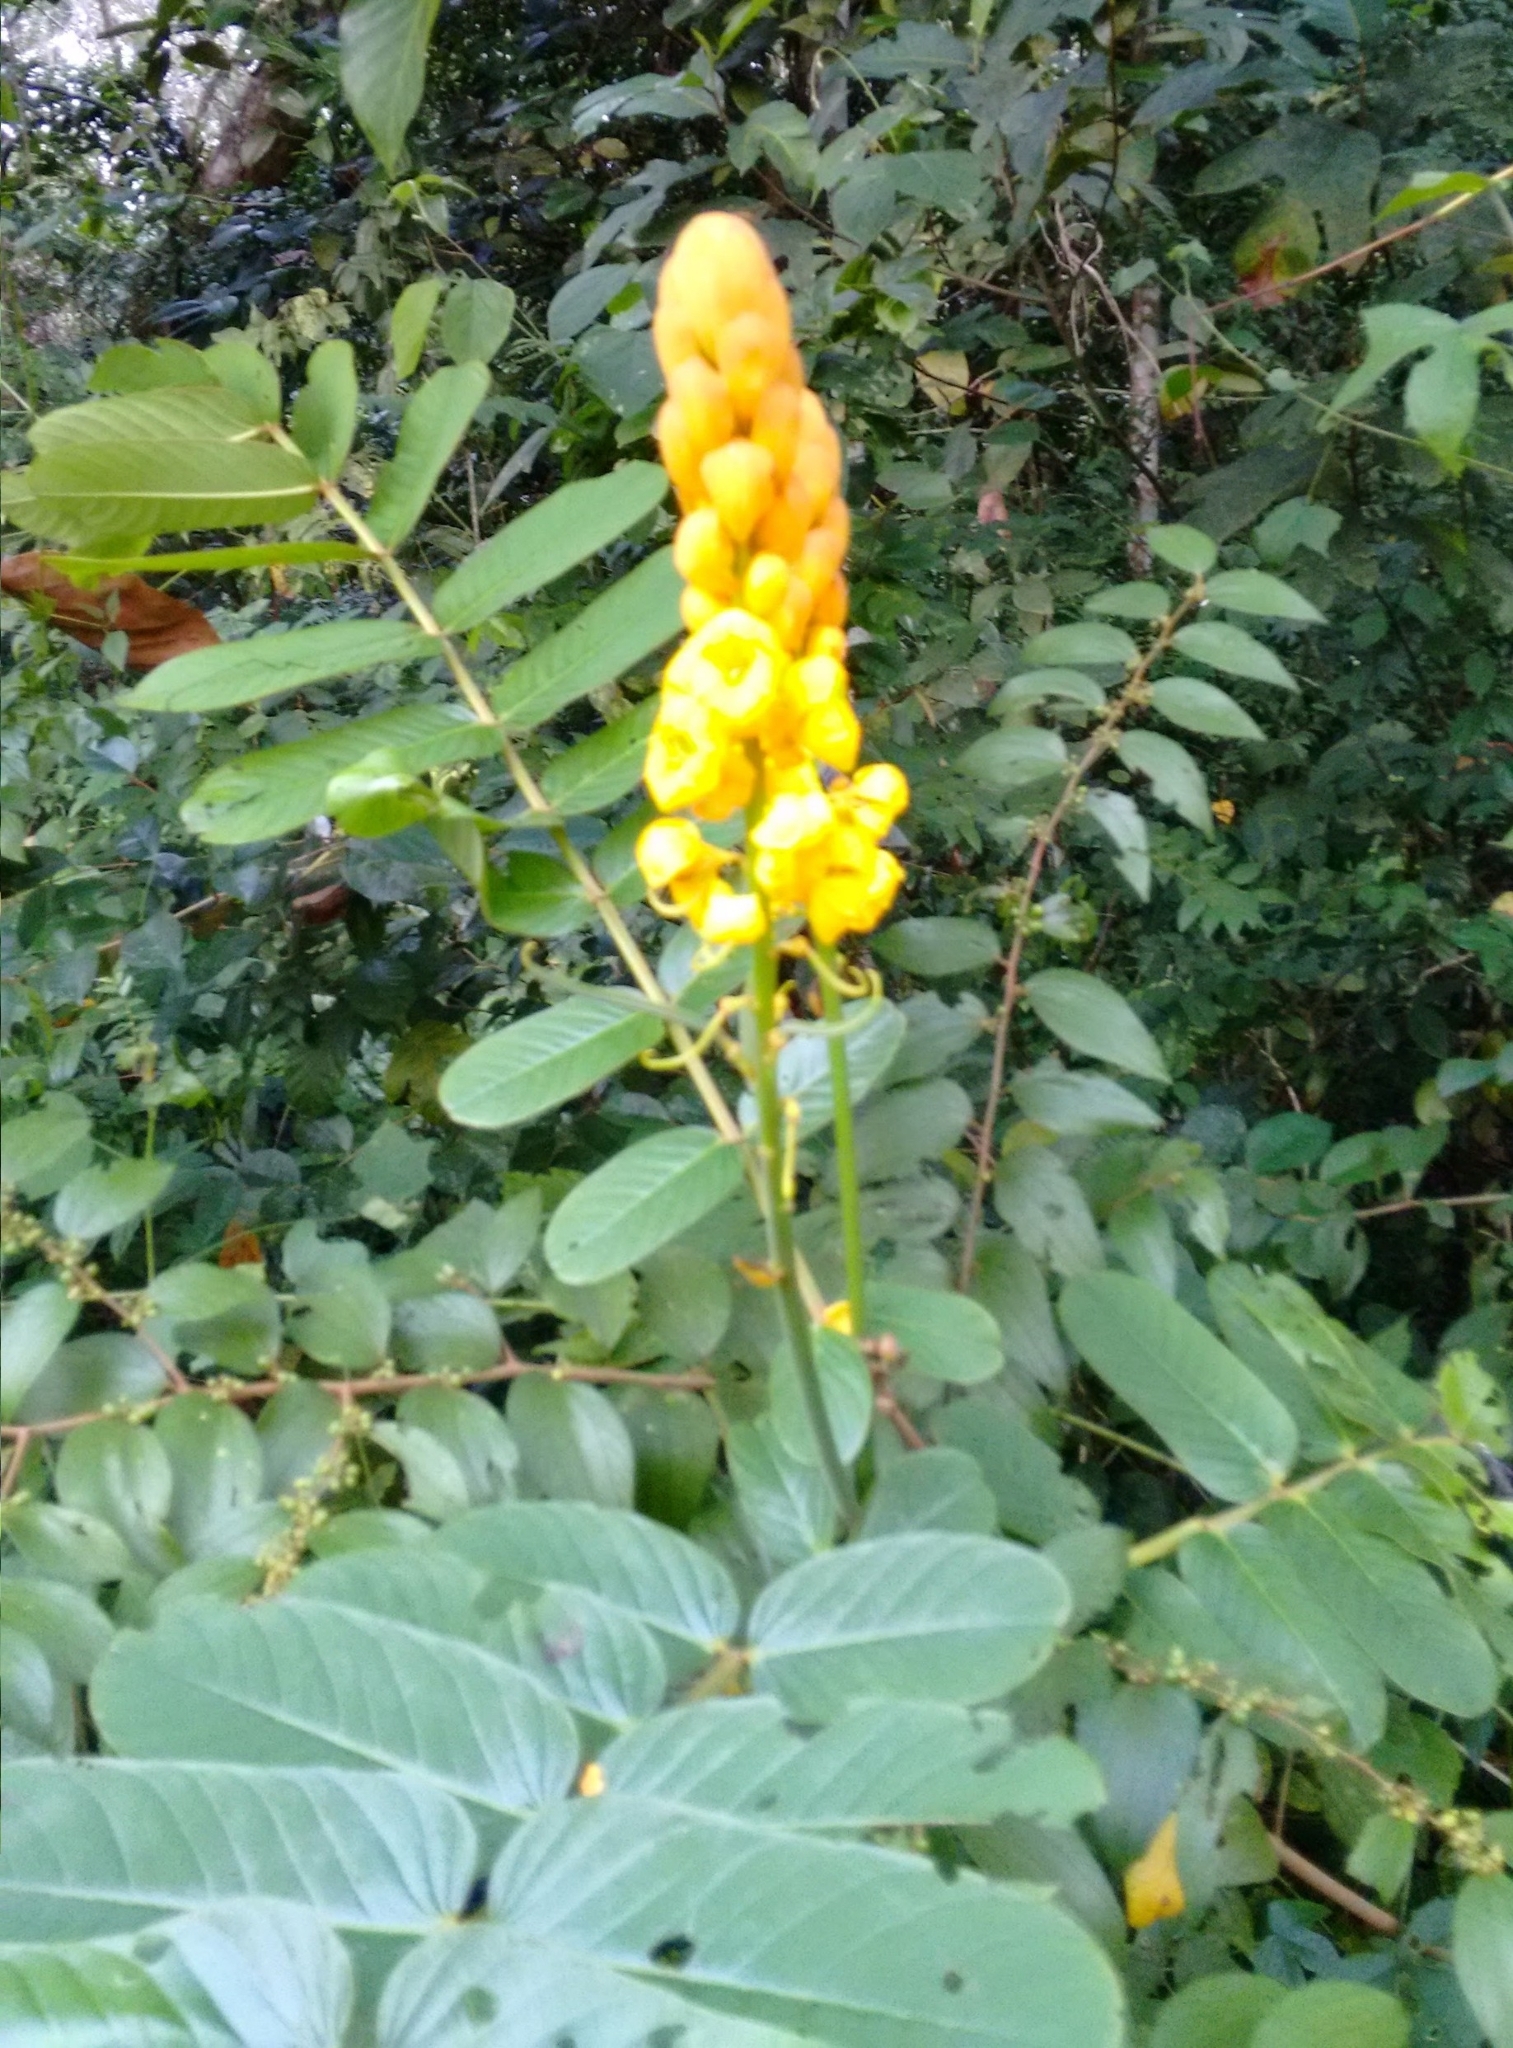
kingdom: Plantae
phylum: Tracheophyta
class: Magnoliopsida
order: Fabales
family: Fabaceae
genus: Senna
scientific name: Senna alata
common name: Emperor's candlesticks
